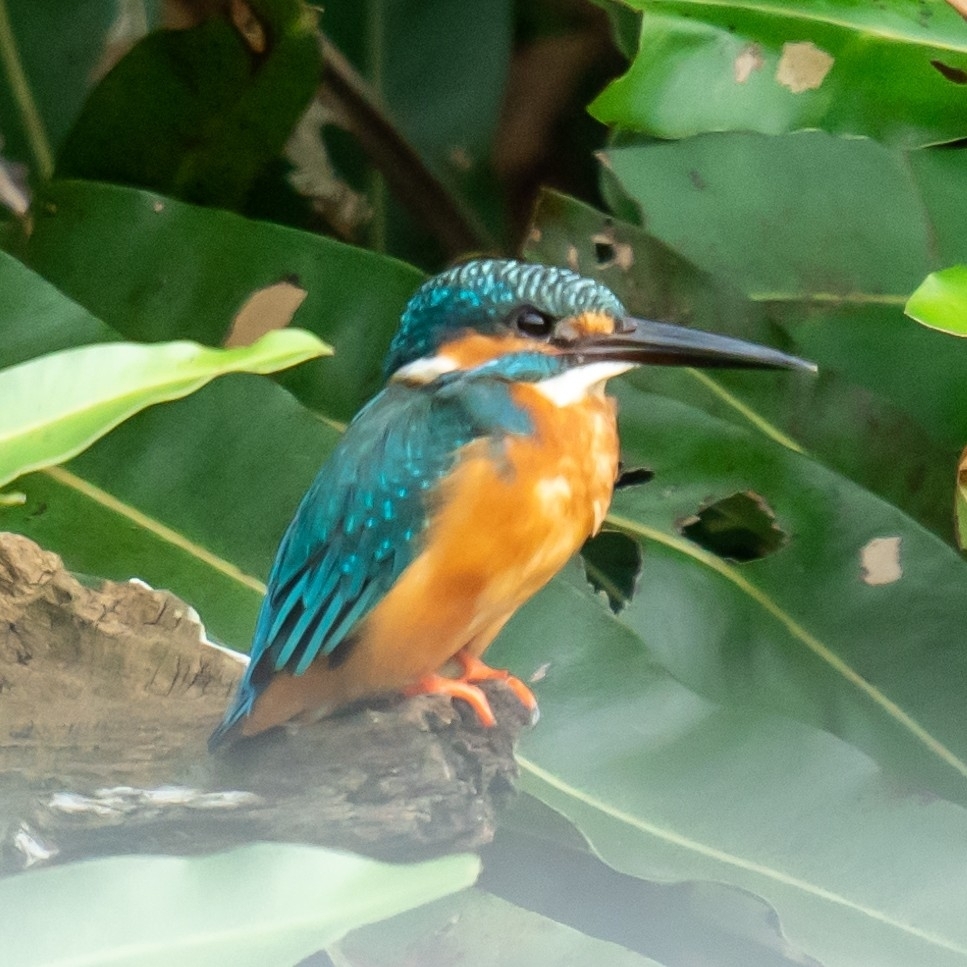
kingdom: Animalia
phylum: Chordata
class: Aves
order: Coraciiformes
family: Alcedinidae
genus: Alcedo
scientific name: Alcedo atthis
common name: Common kingfisher
